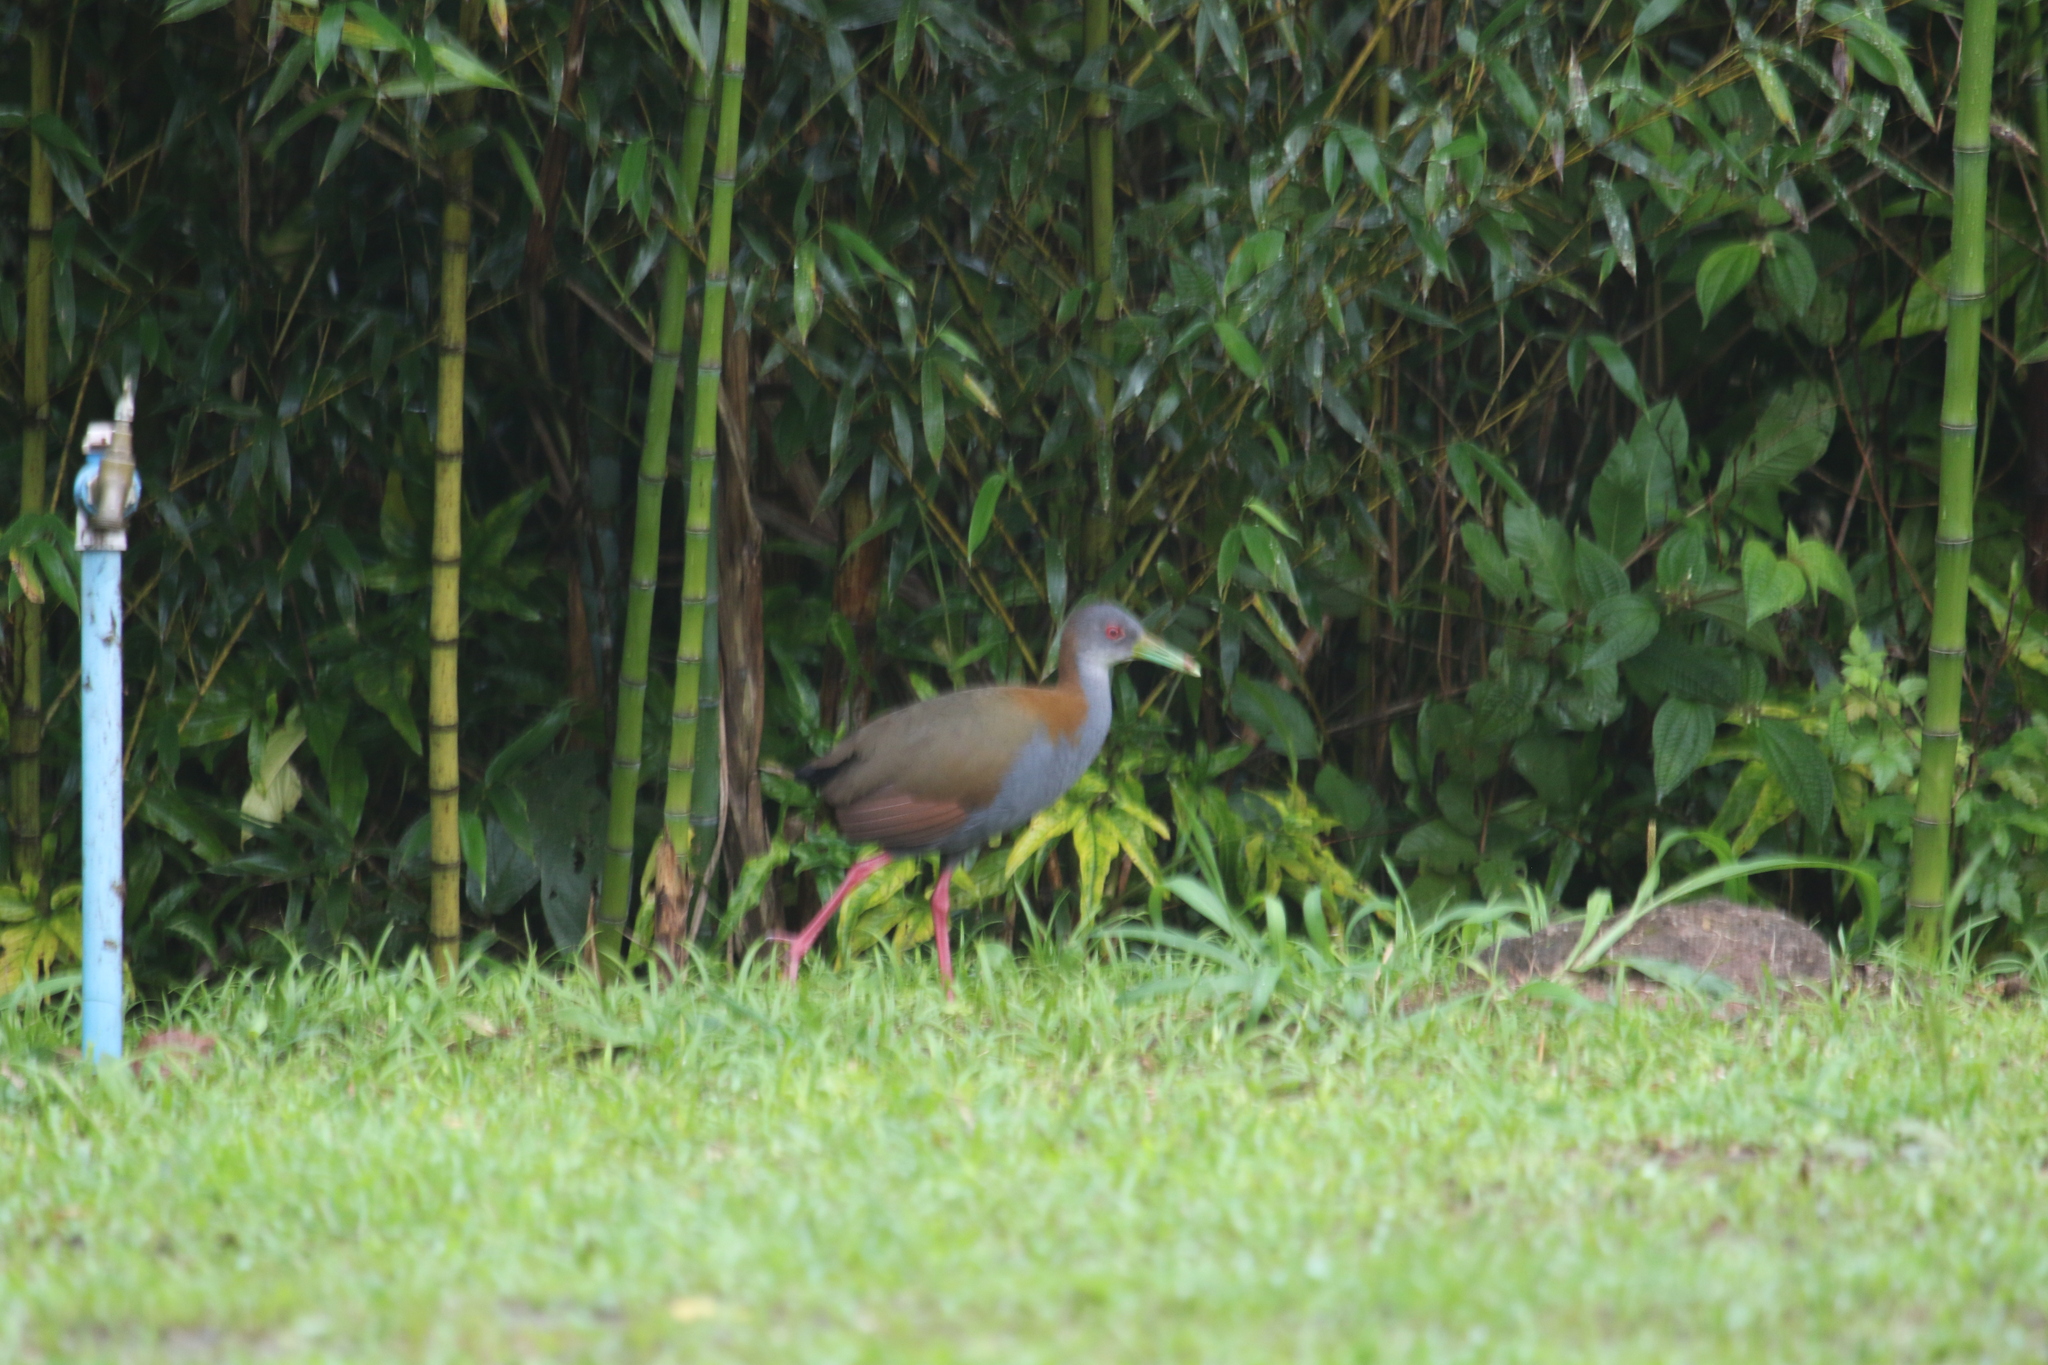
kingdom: Animalia
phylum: Chordata
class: Aves
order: Gruiformes
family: Rallidae
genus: Aramides
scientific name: Aramides saracura
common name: Slaty-breasted wood rail
